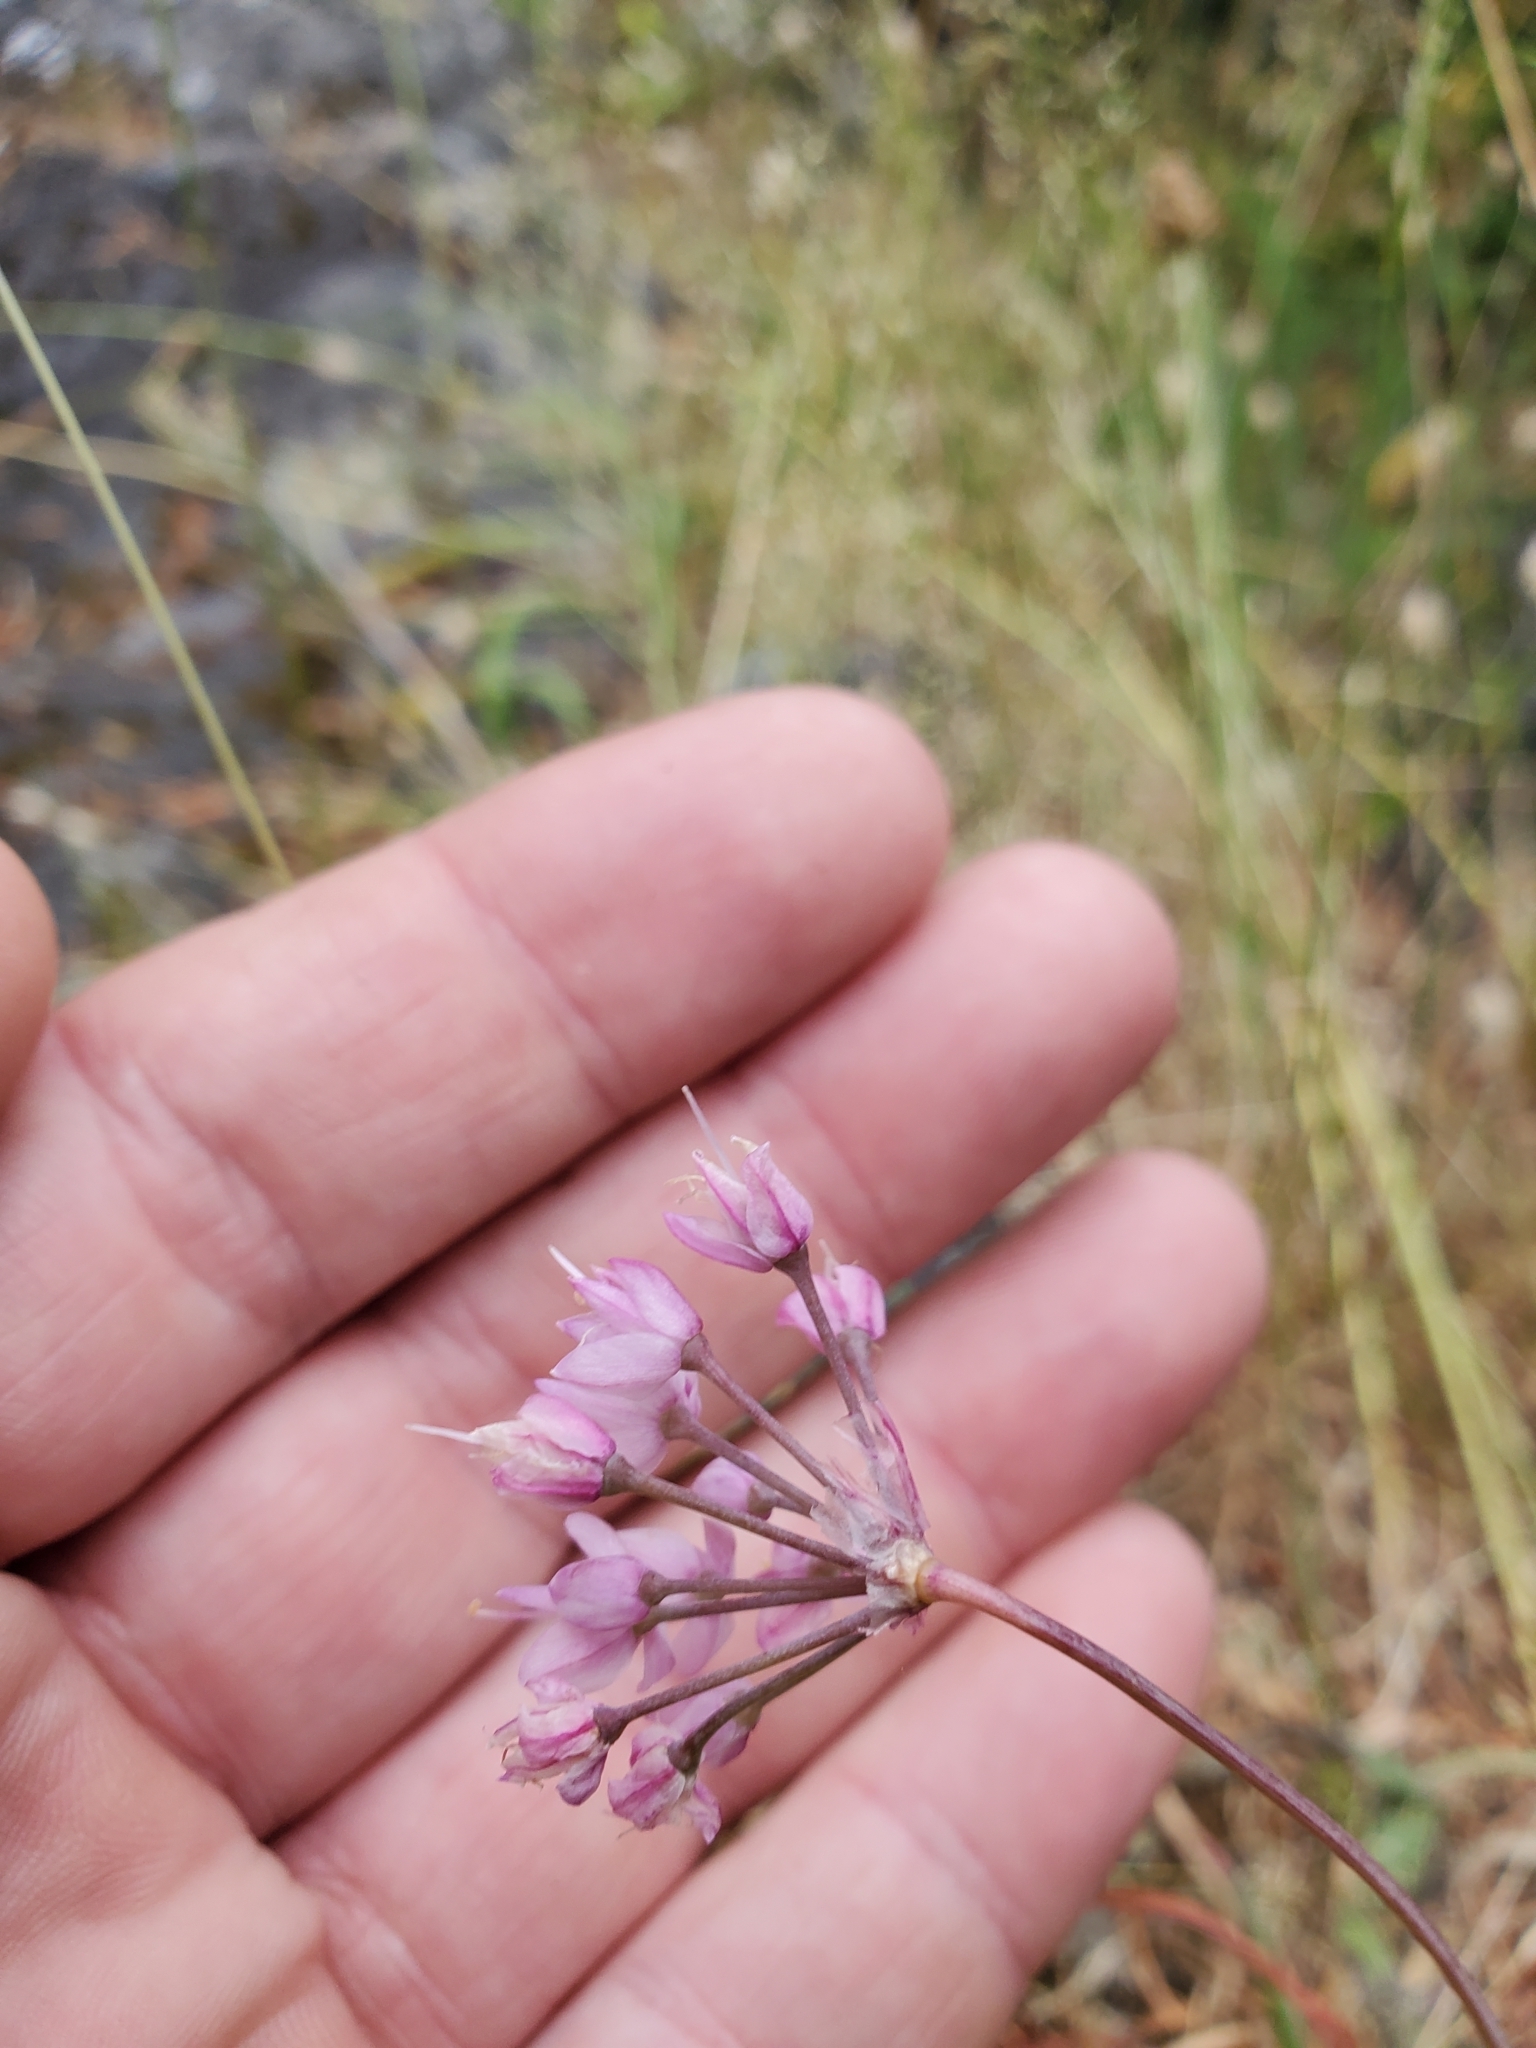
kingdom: Plantae
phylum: Tracheophyta
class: Liliopsida
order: Asparagales
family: Amaryllidaceae
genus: Allium
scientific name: Allium cernuum
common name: Nodding onion
